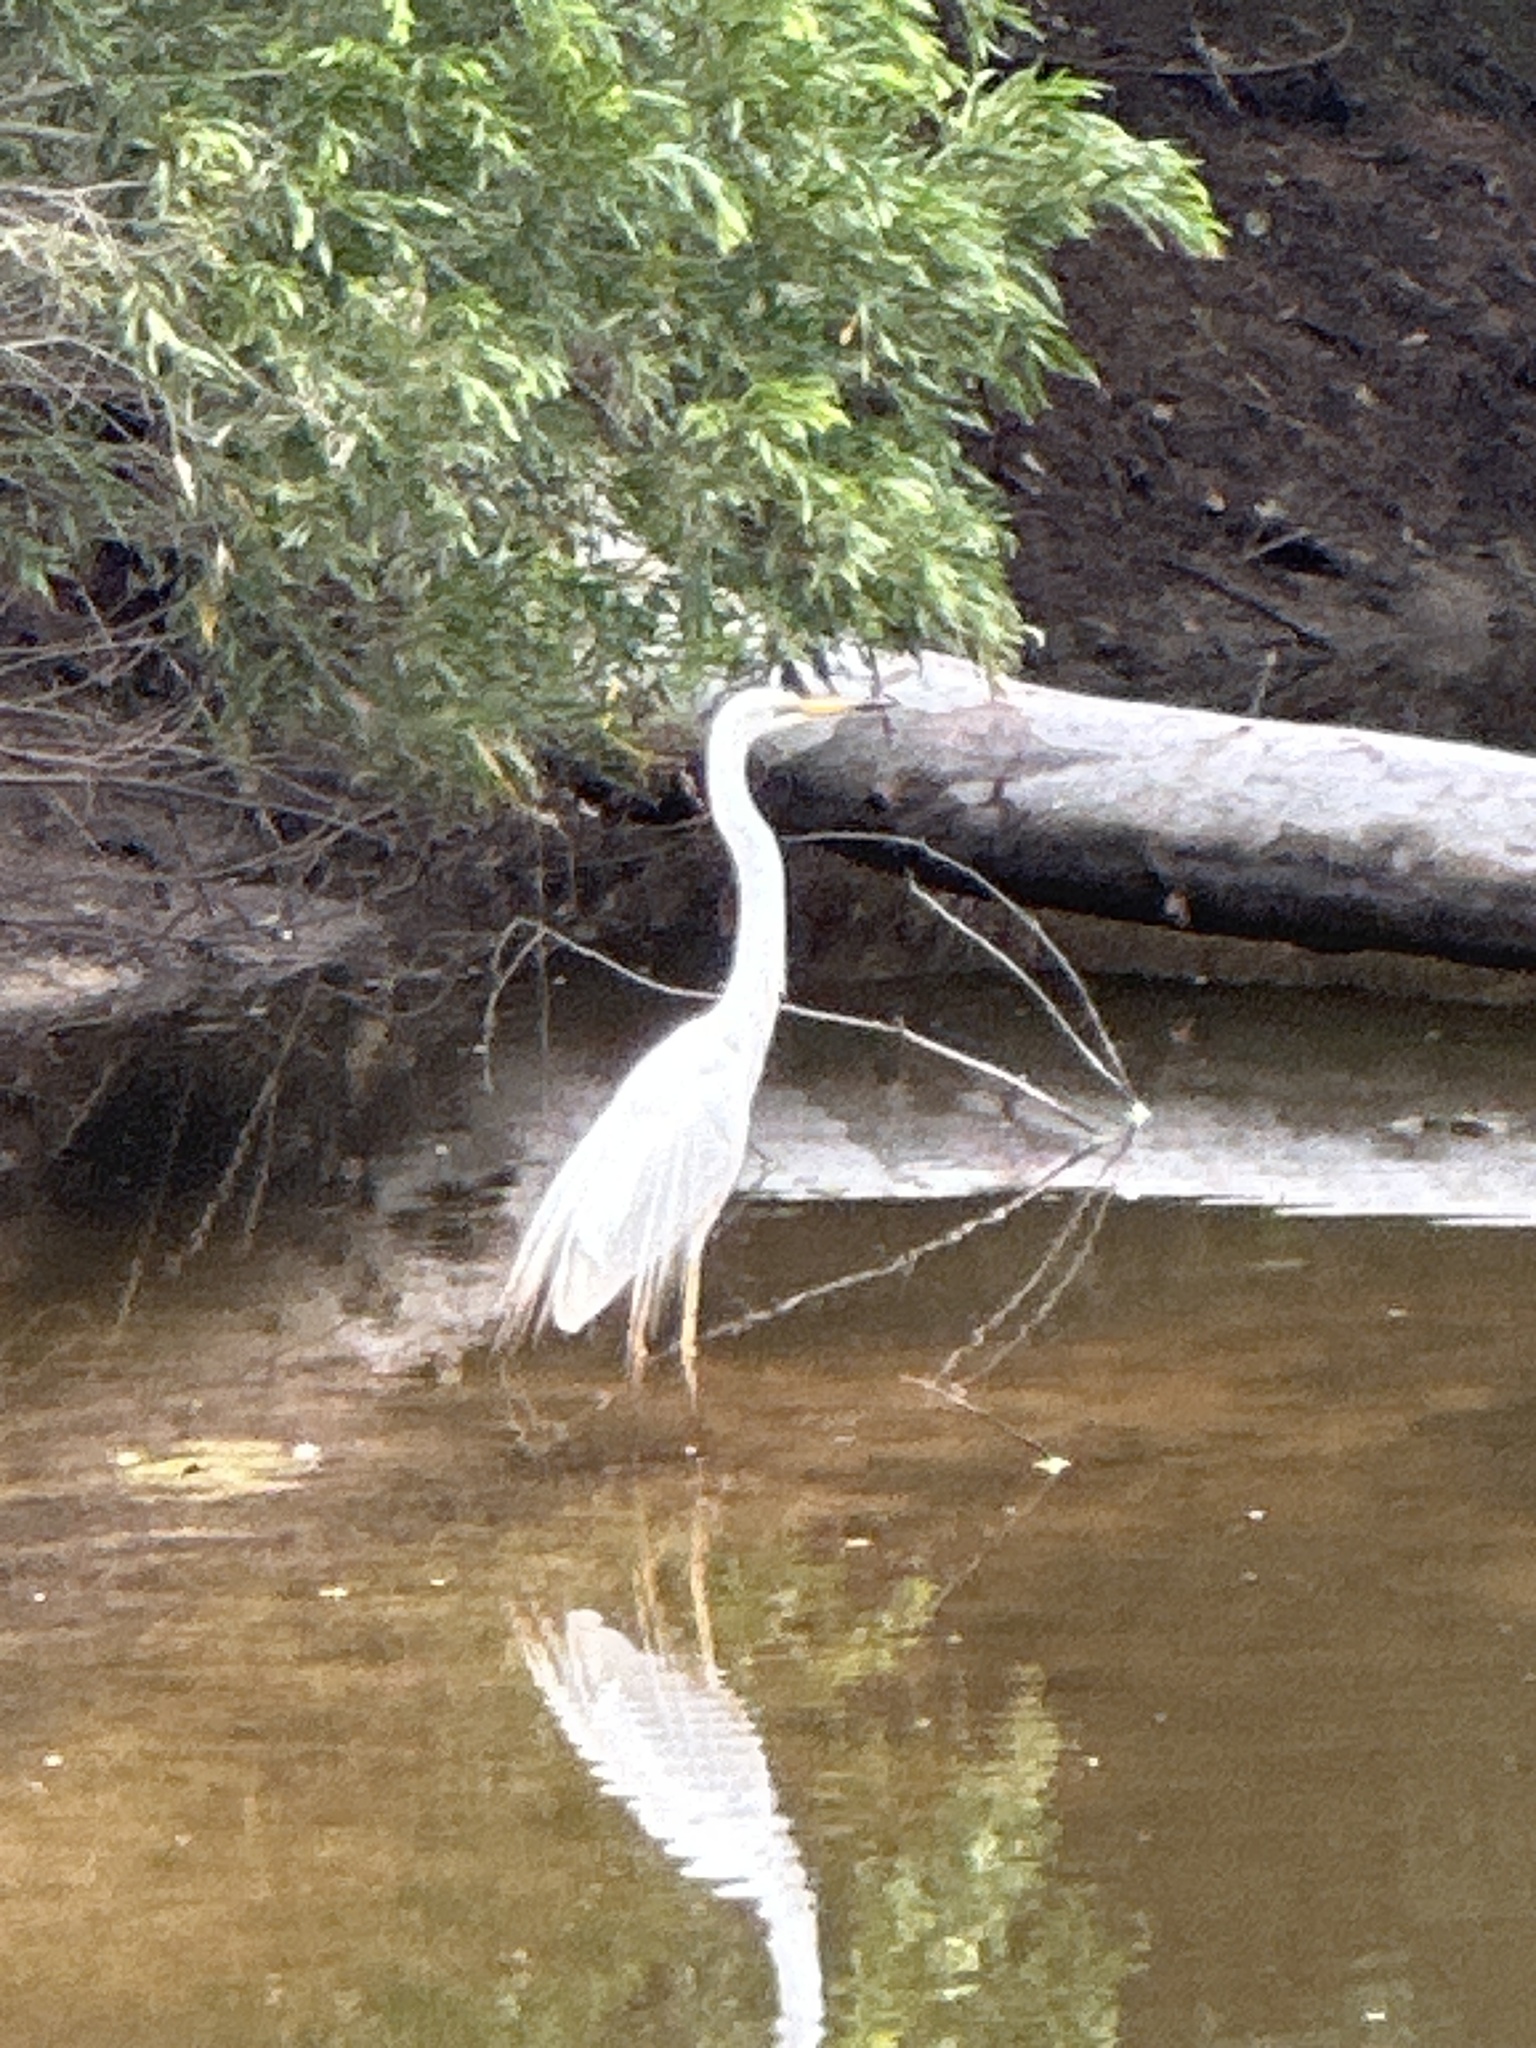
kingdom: Animalia
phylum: Chordata
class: Aves
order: Pelecaniformes
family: Ardeidae
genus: Ardea
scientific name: Ardea alba
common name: Great egret
